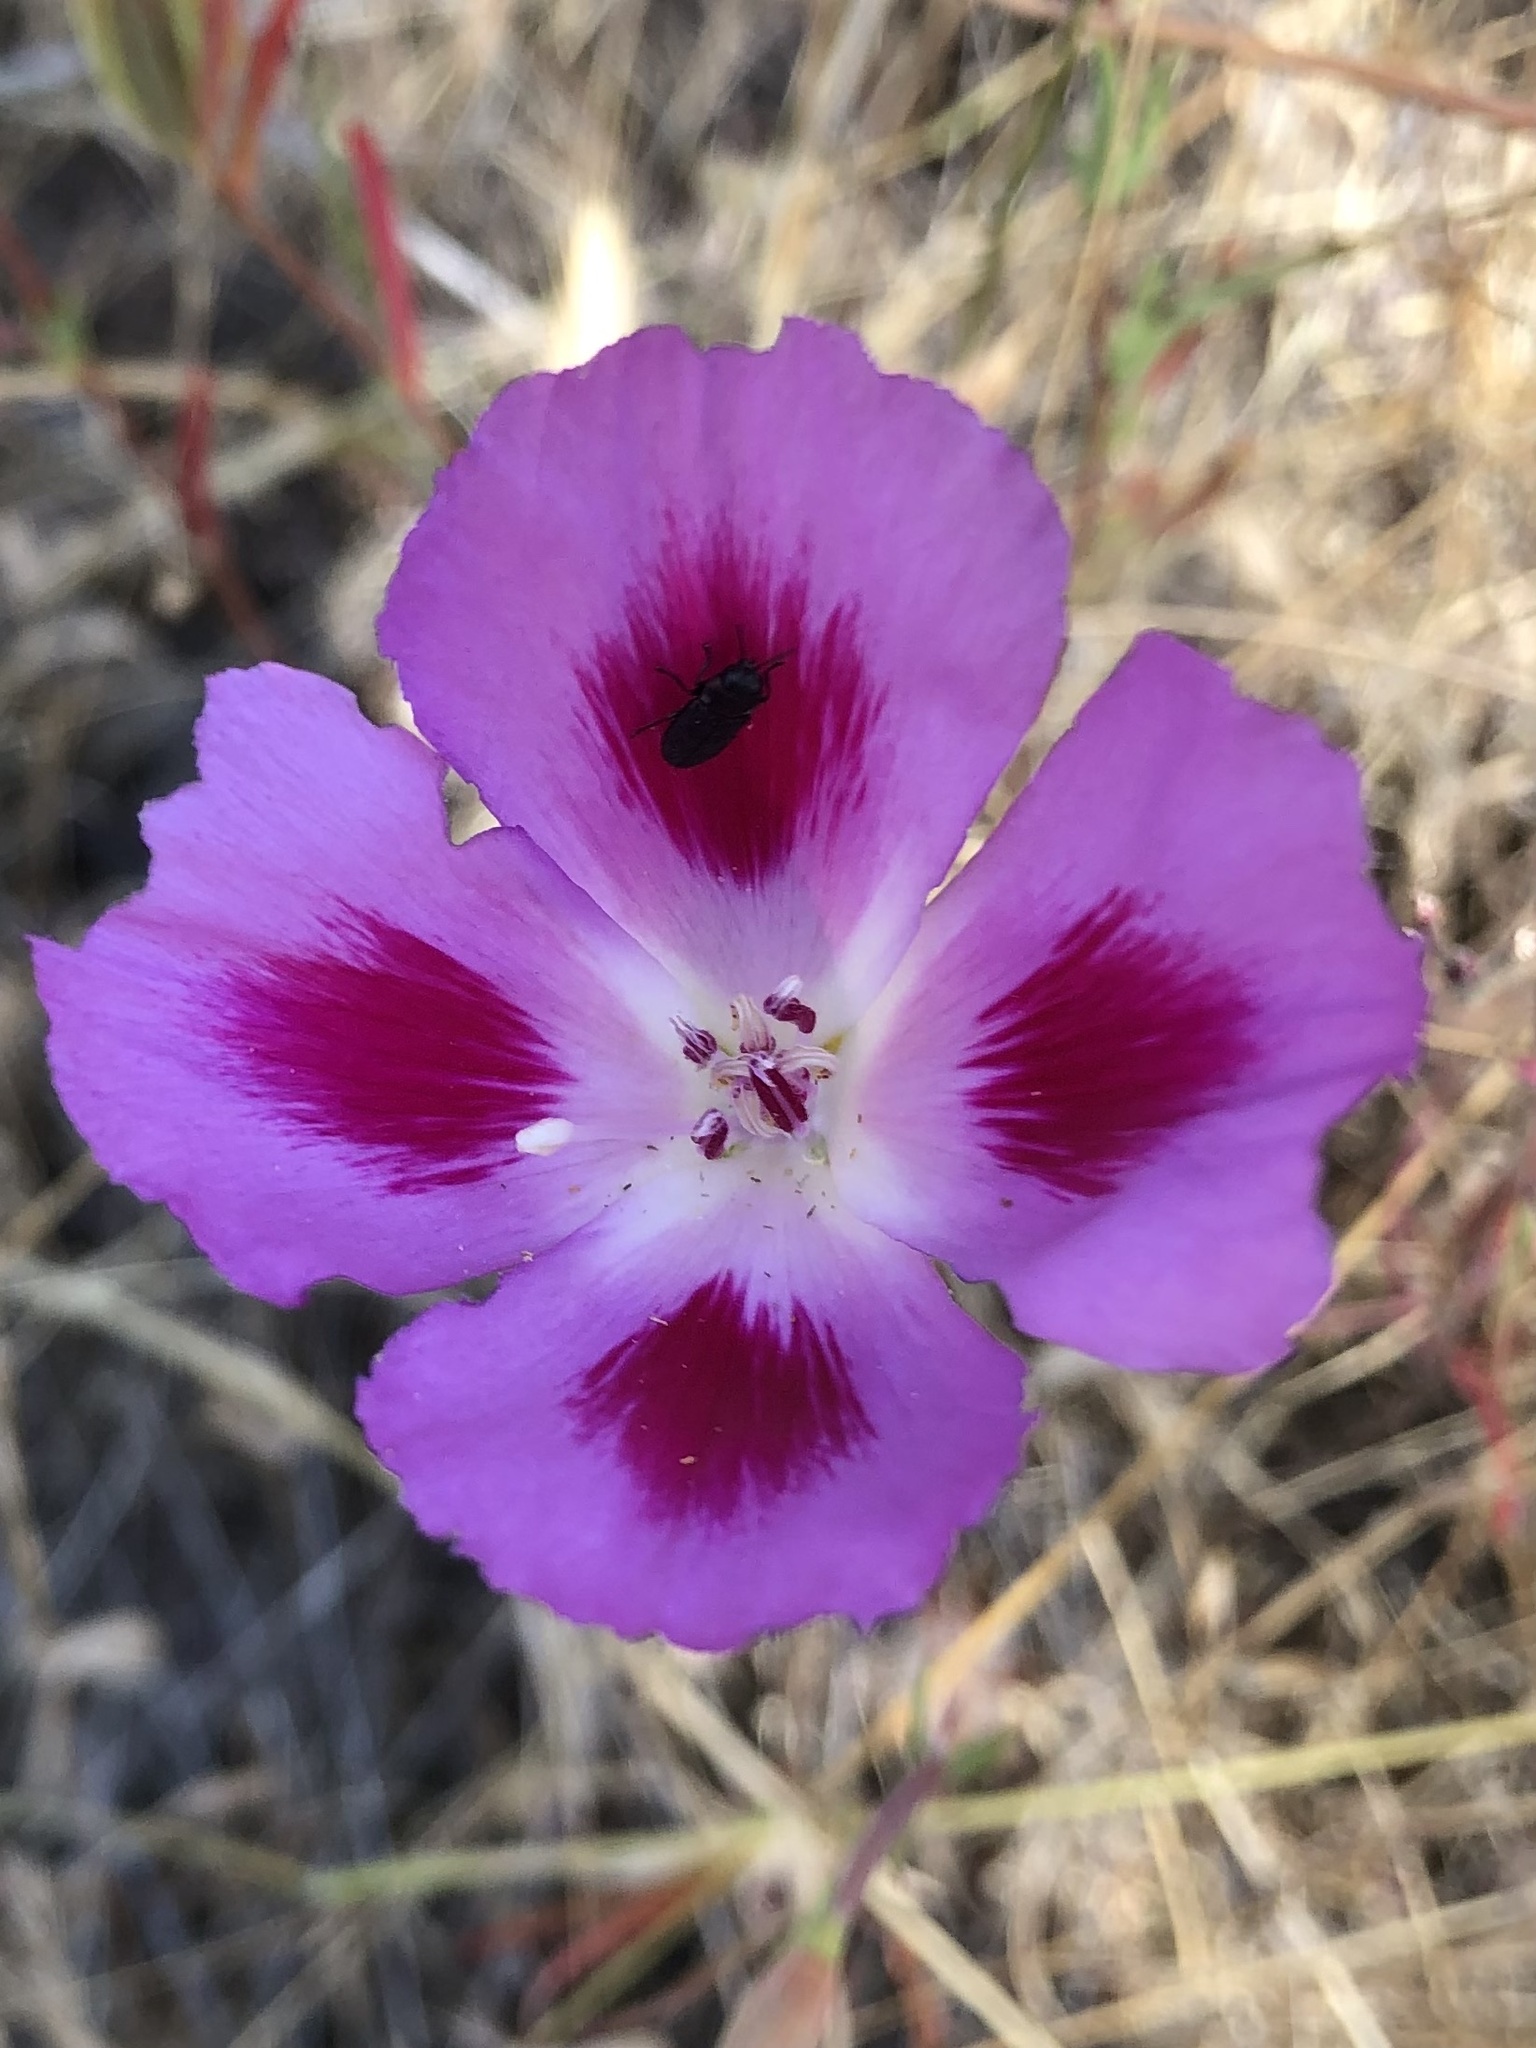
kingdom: Plantae
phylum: Tracheophyta
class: Magnoliopsida
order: Myrtales
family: Onagraceae
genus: Clarkia
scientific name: Clarkia amoena
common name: Godetia
